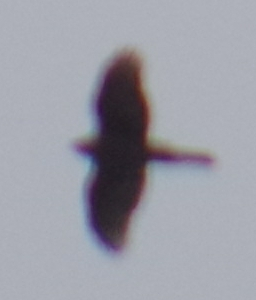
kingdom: Animalia
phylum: Chordata
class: Aves
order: Accipitriformes
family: Accipitridae
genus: Accipiter
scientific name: Accipiter
